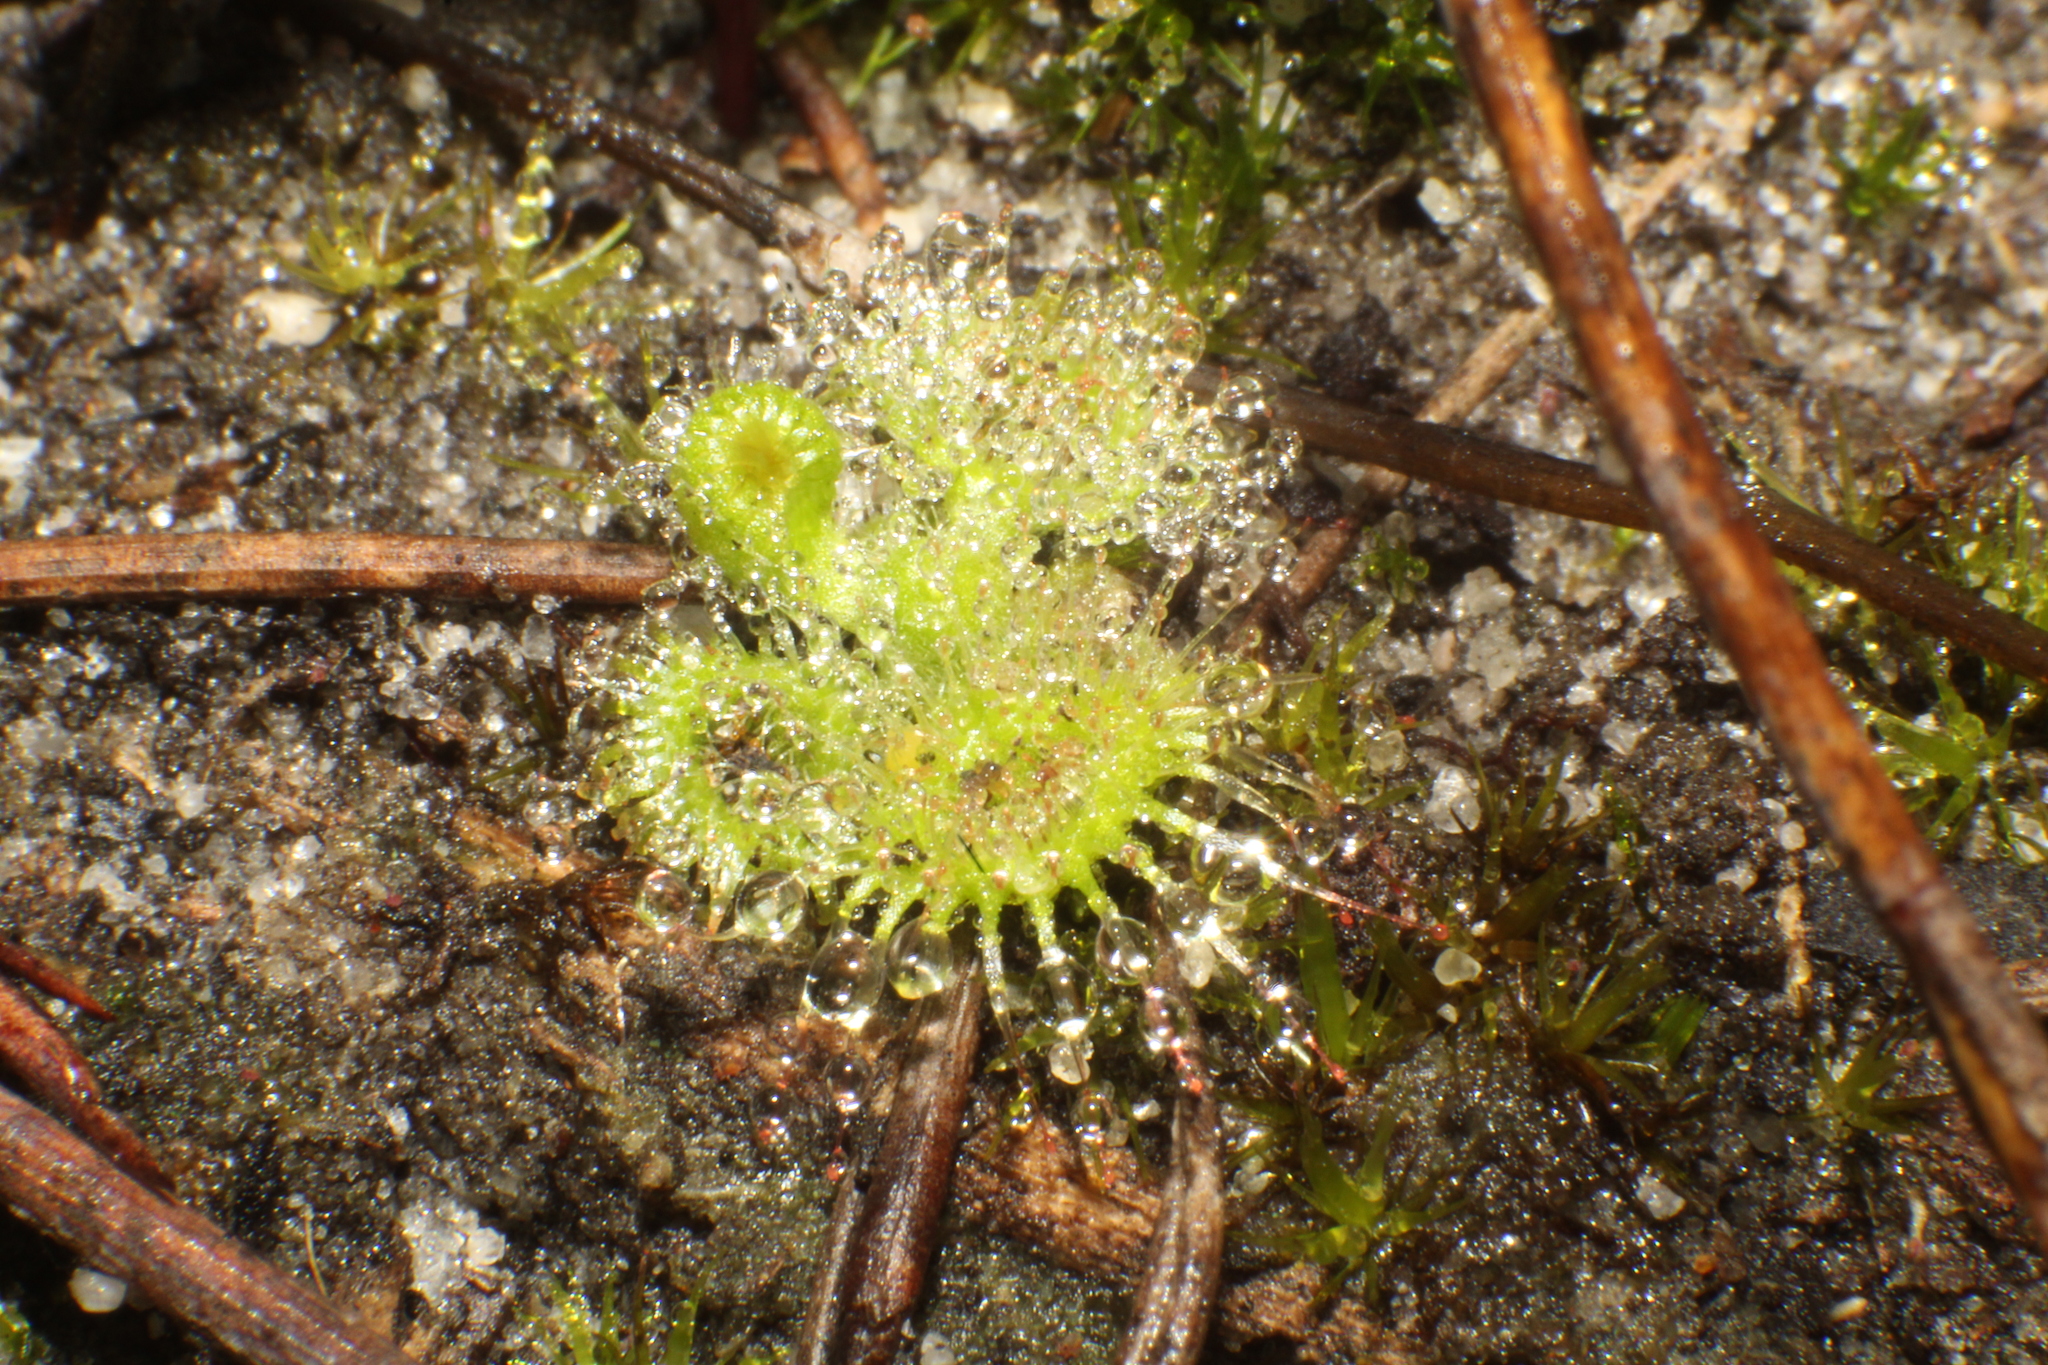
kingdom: Plantae
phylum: Tracheophyta
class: Magnoliopsida
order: Caryophyllales
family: Droseraceae
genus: Drosera
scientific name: Drosera glanduligera
